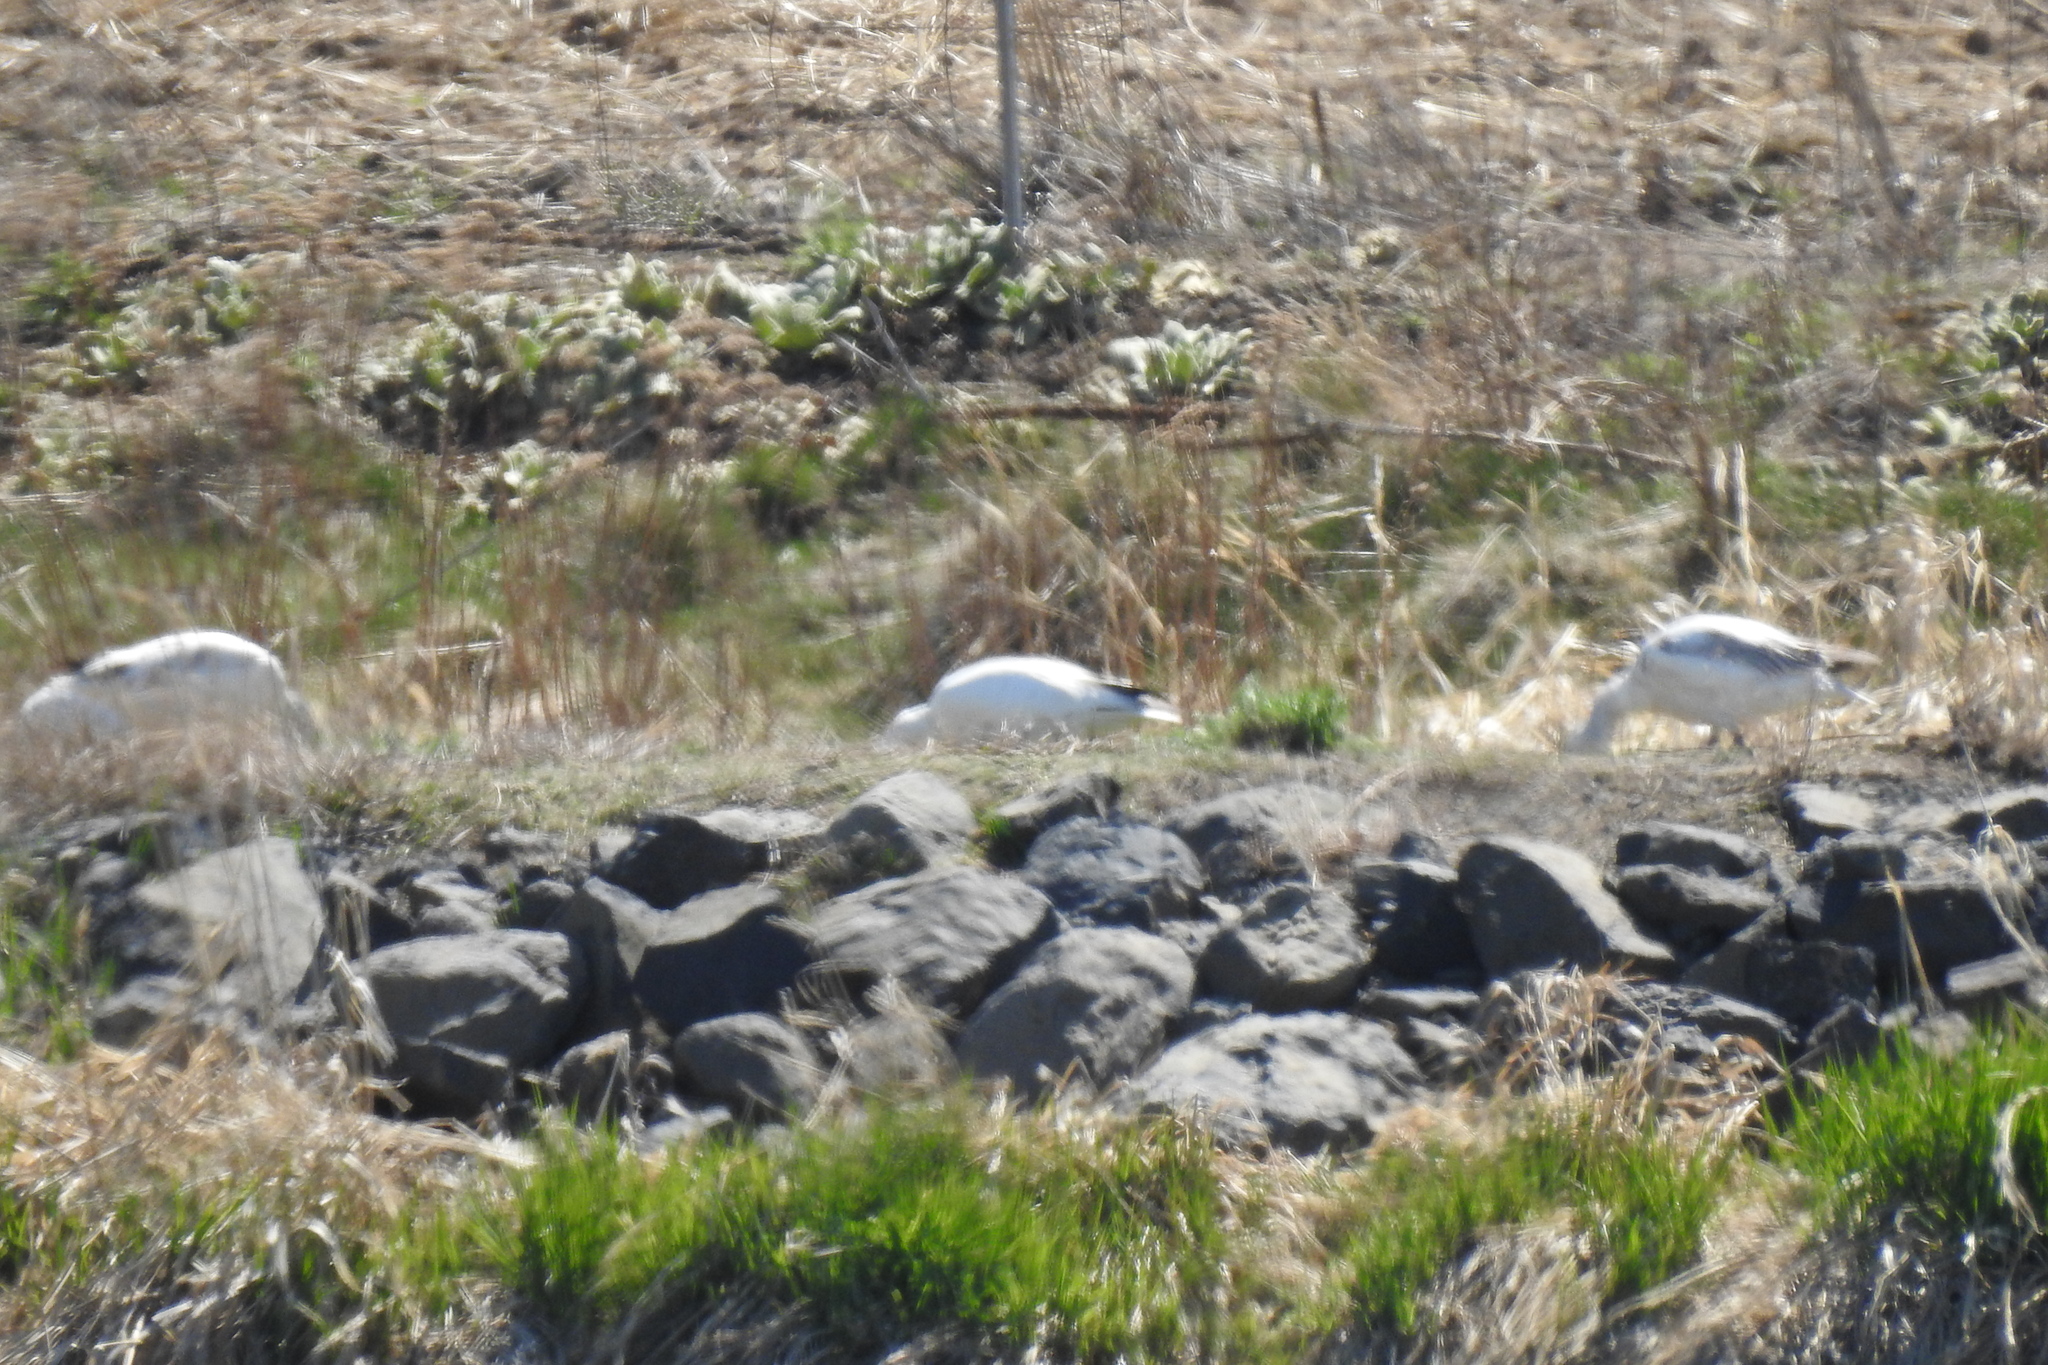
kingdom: Animalia
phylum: Chordata
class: Aves
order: Anseriformes
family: Anatidae
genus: Anser
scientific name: Anser caerulescens
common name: Snow goose
